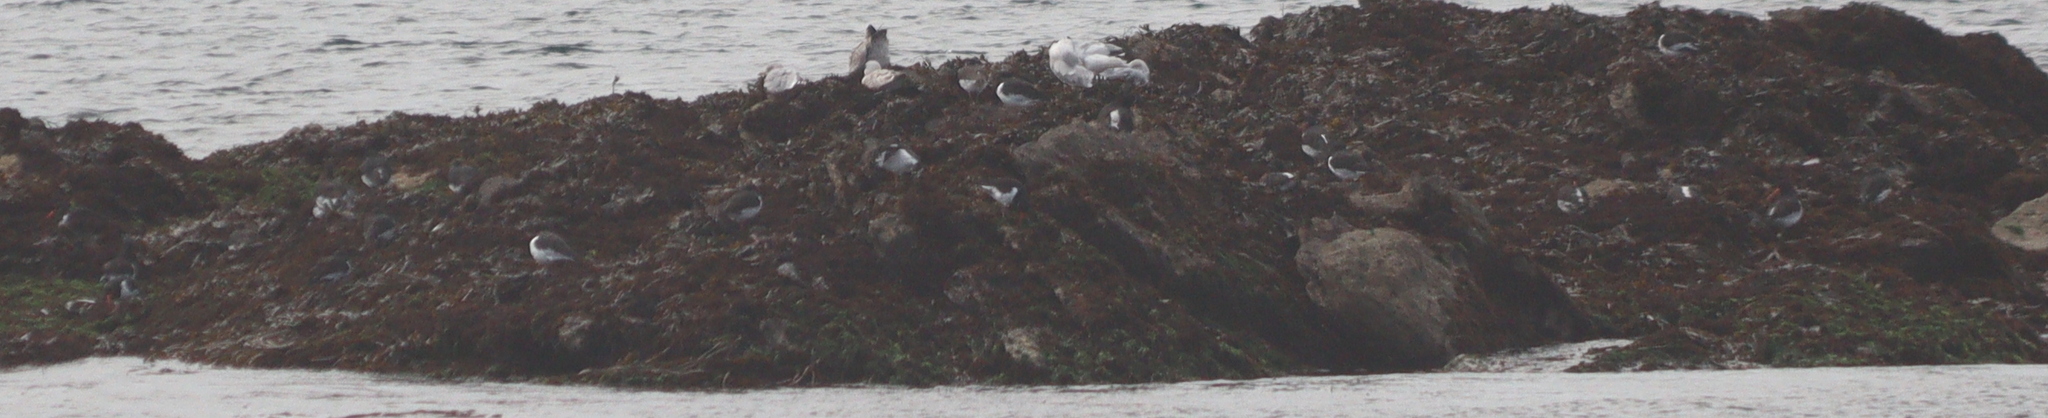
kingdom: Animalia
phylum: Chordata
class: Aves
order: Charadriiformes
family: Haematopodidae
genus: Haematopus
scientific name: Haematopus ostralegus
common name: Eurasian oystercatcher
